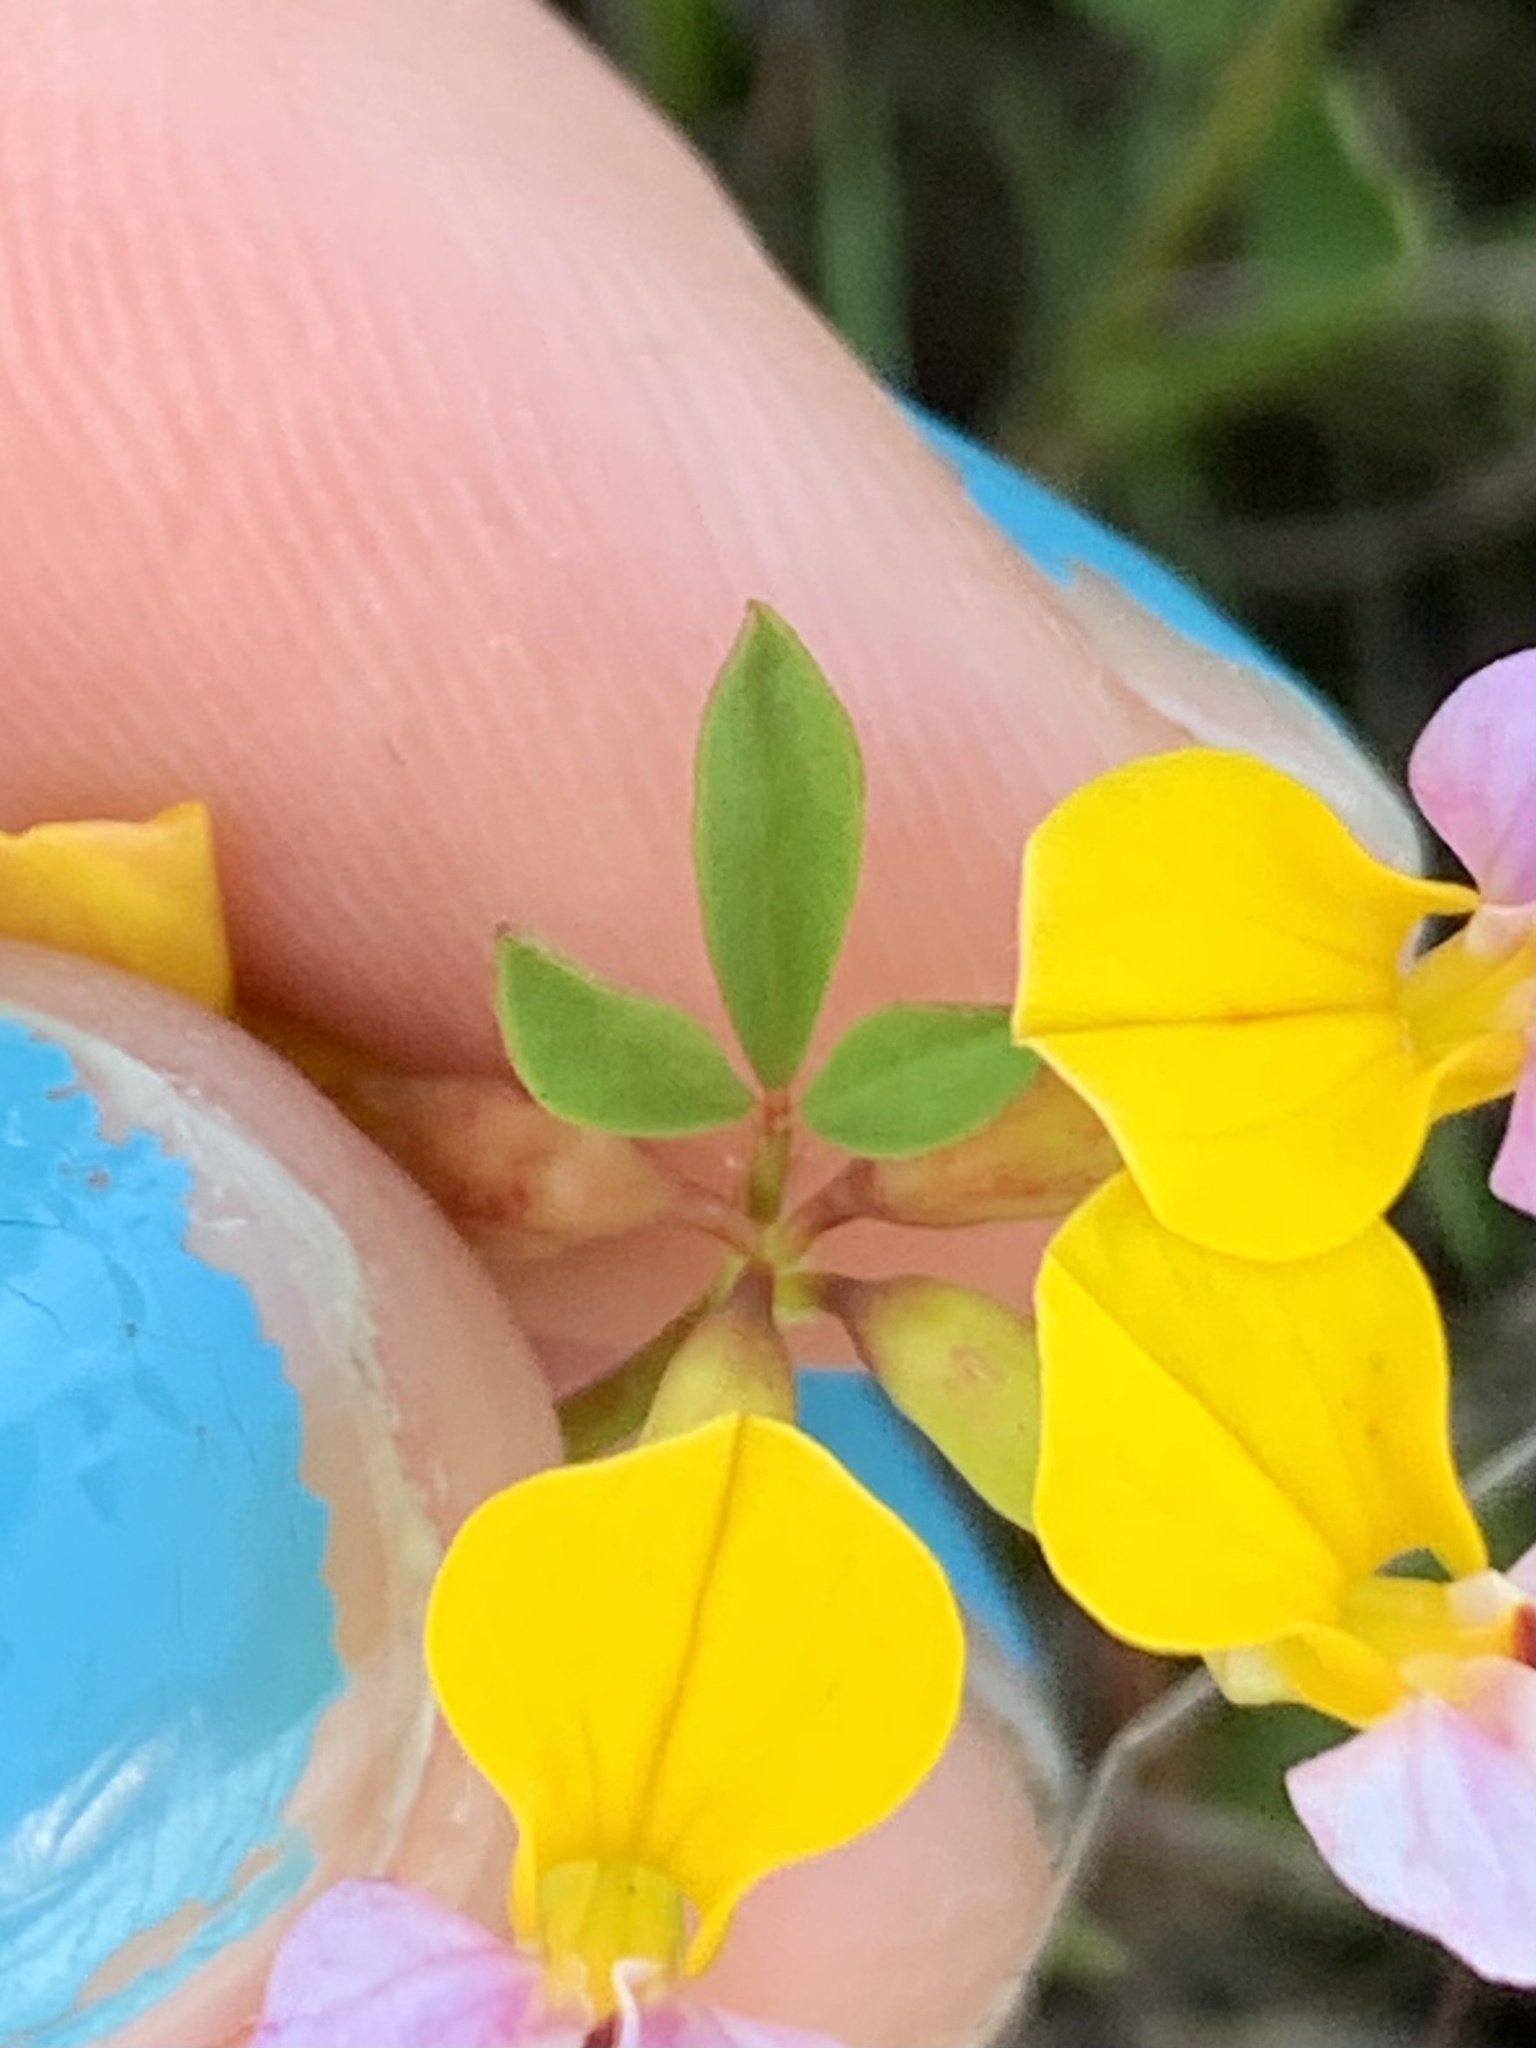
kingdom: Plantae
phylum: Tracheophyta
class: Magnoliopsida
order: Fabales
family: Fabaceae
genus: Hosackia
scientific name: Hosackia gracilis
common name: Seaside bird's-foot lotus
